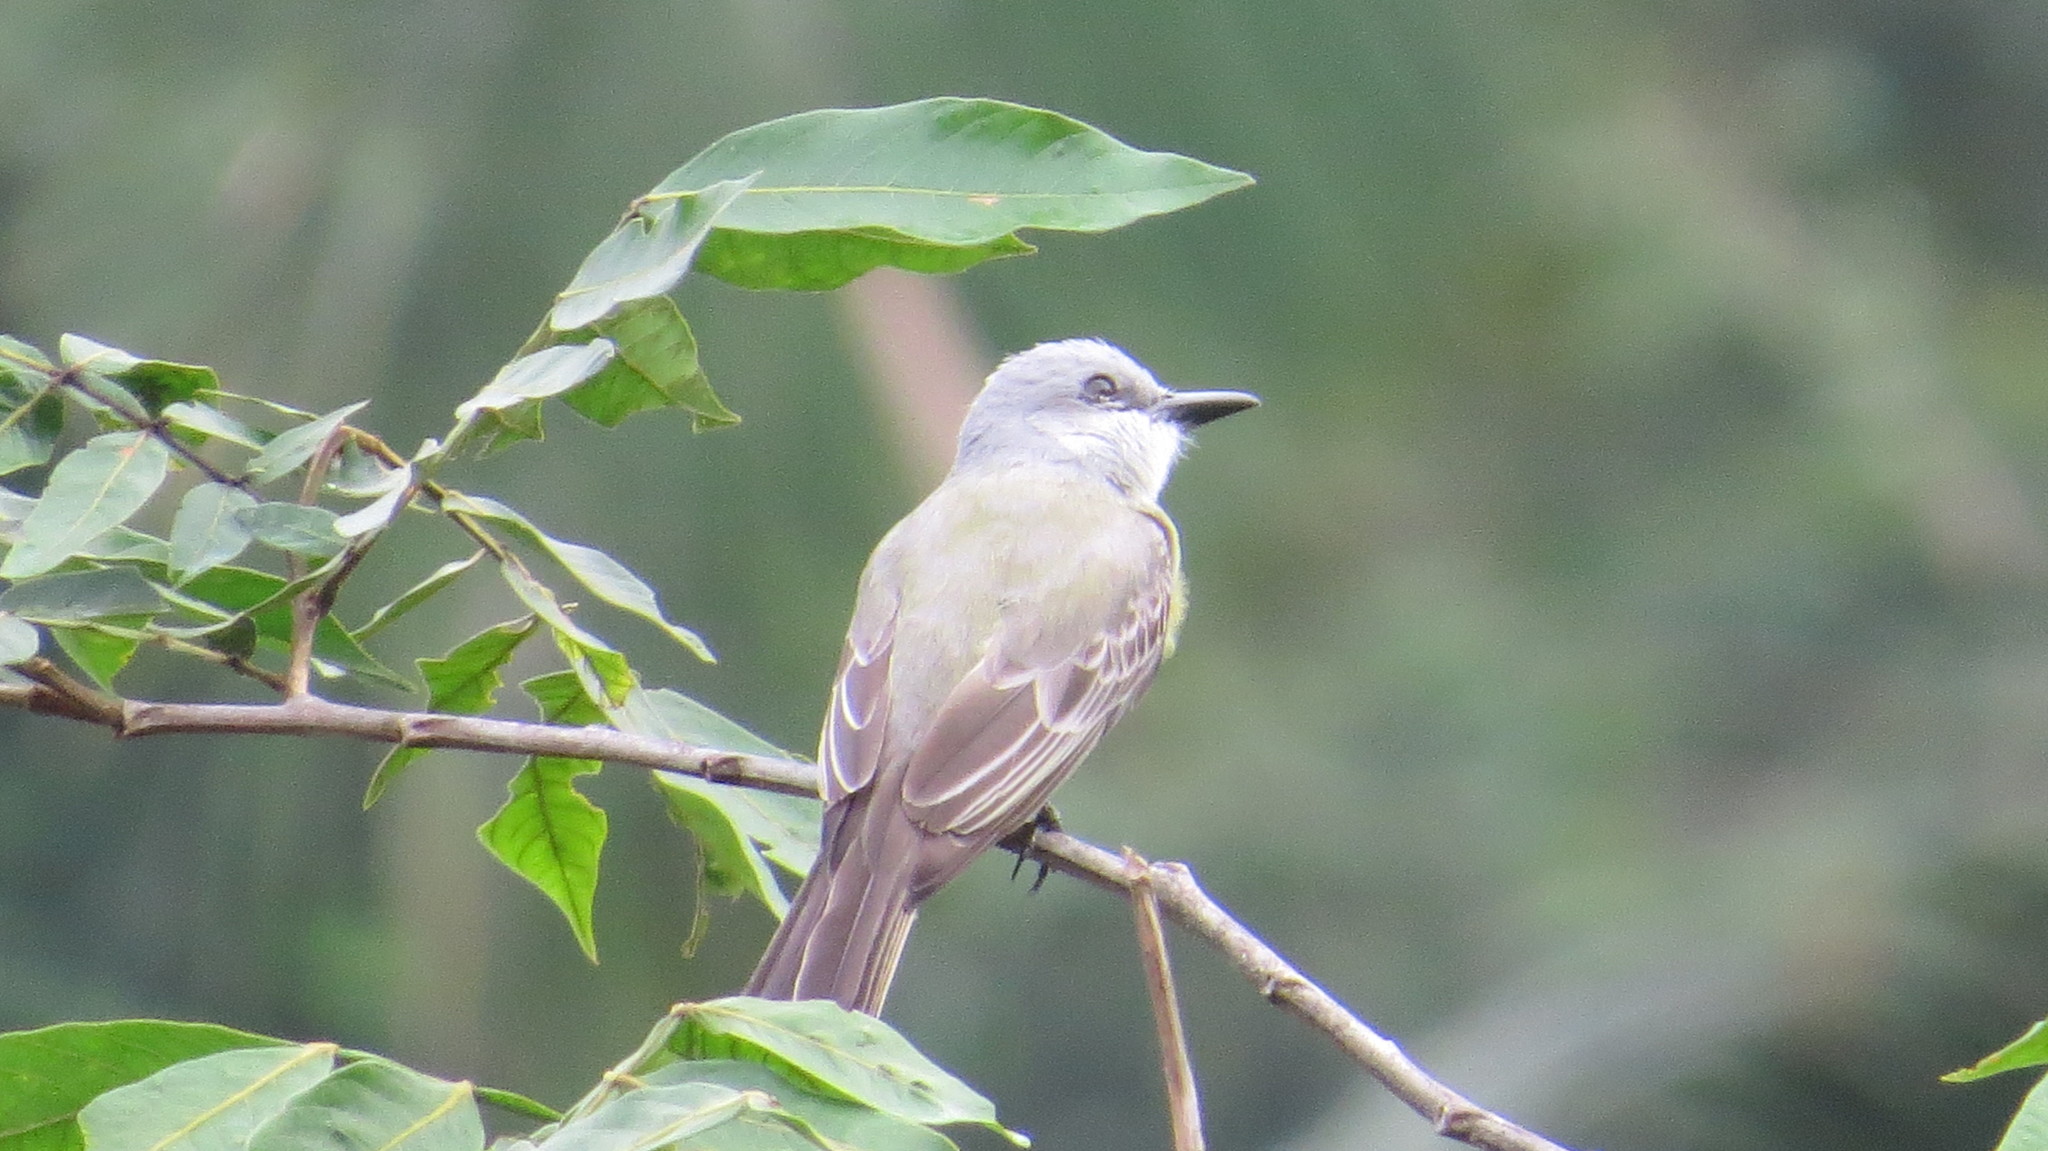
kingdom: Animalia
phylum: Chordata
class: Aves
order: Passeriformes
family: Tyrannidae
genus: Tyrannus
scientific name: Tyrannus melancholicus
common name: Tropical kingbird
